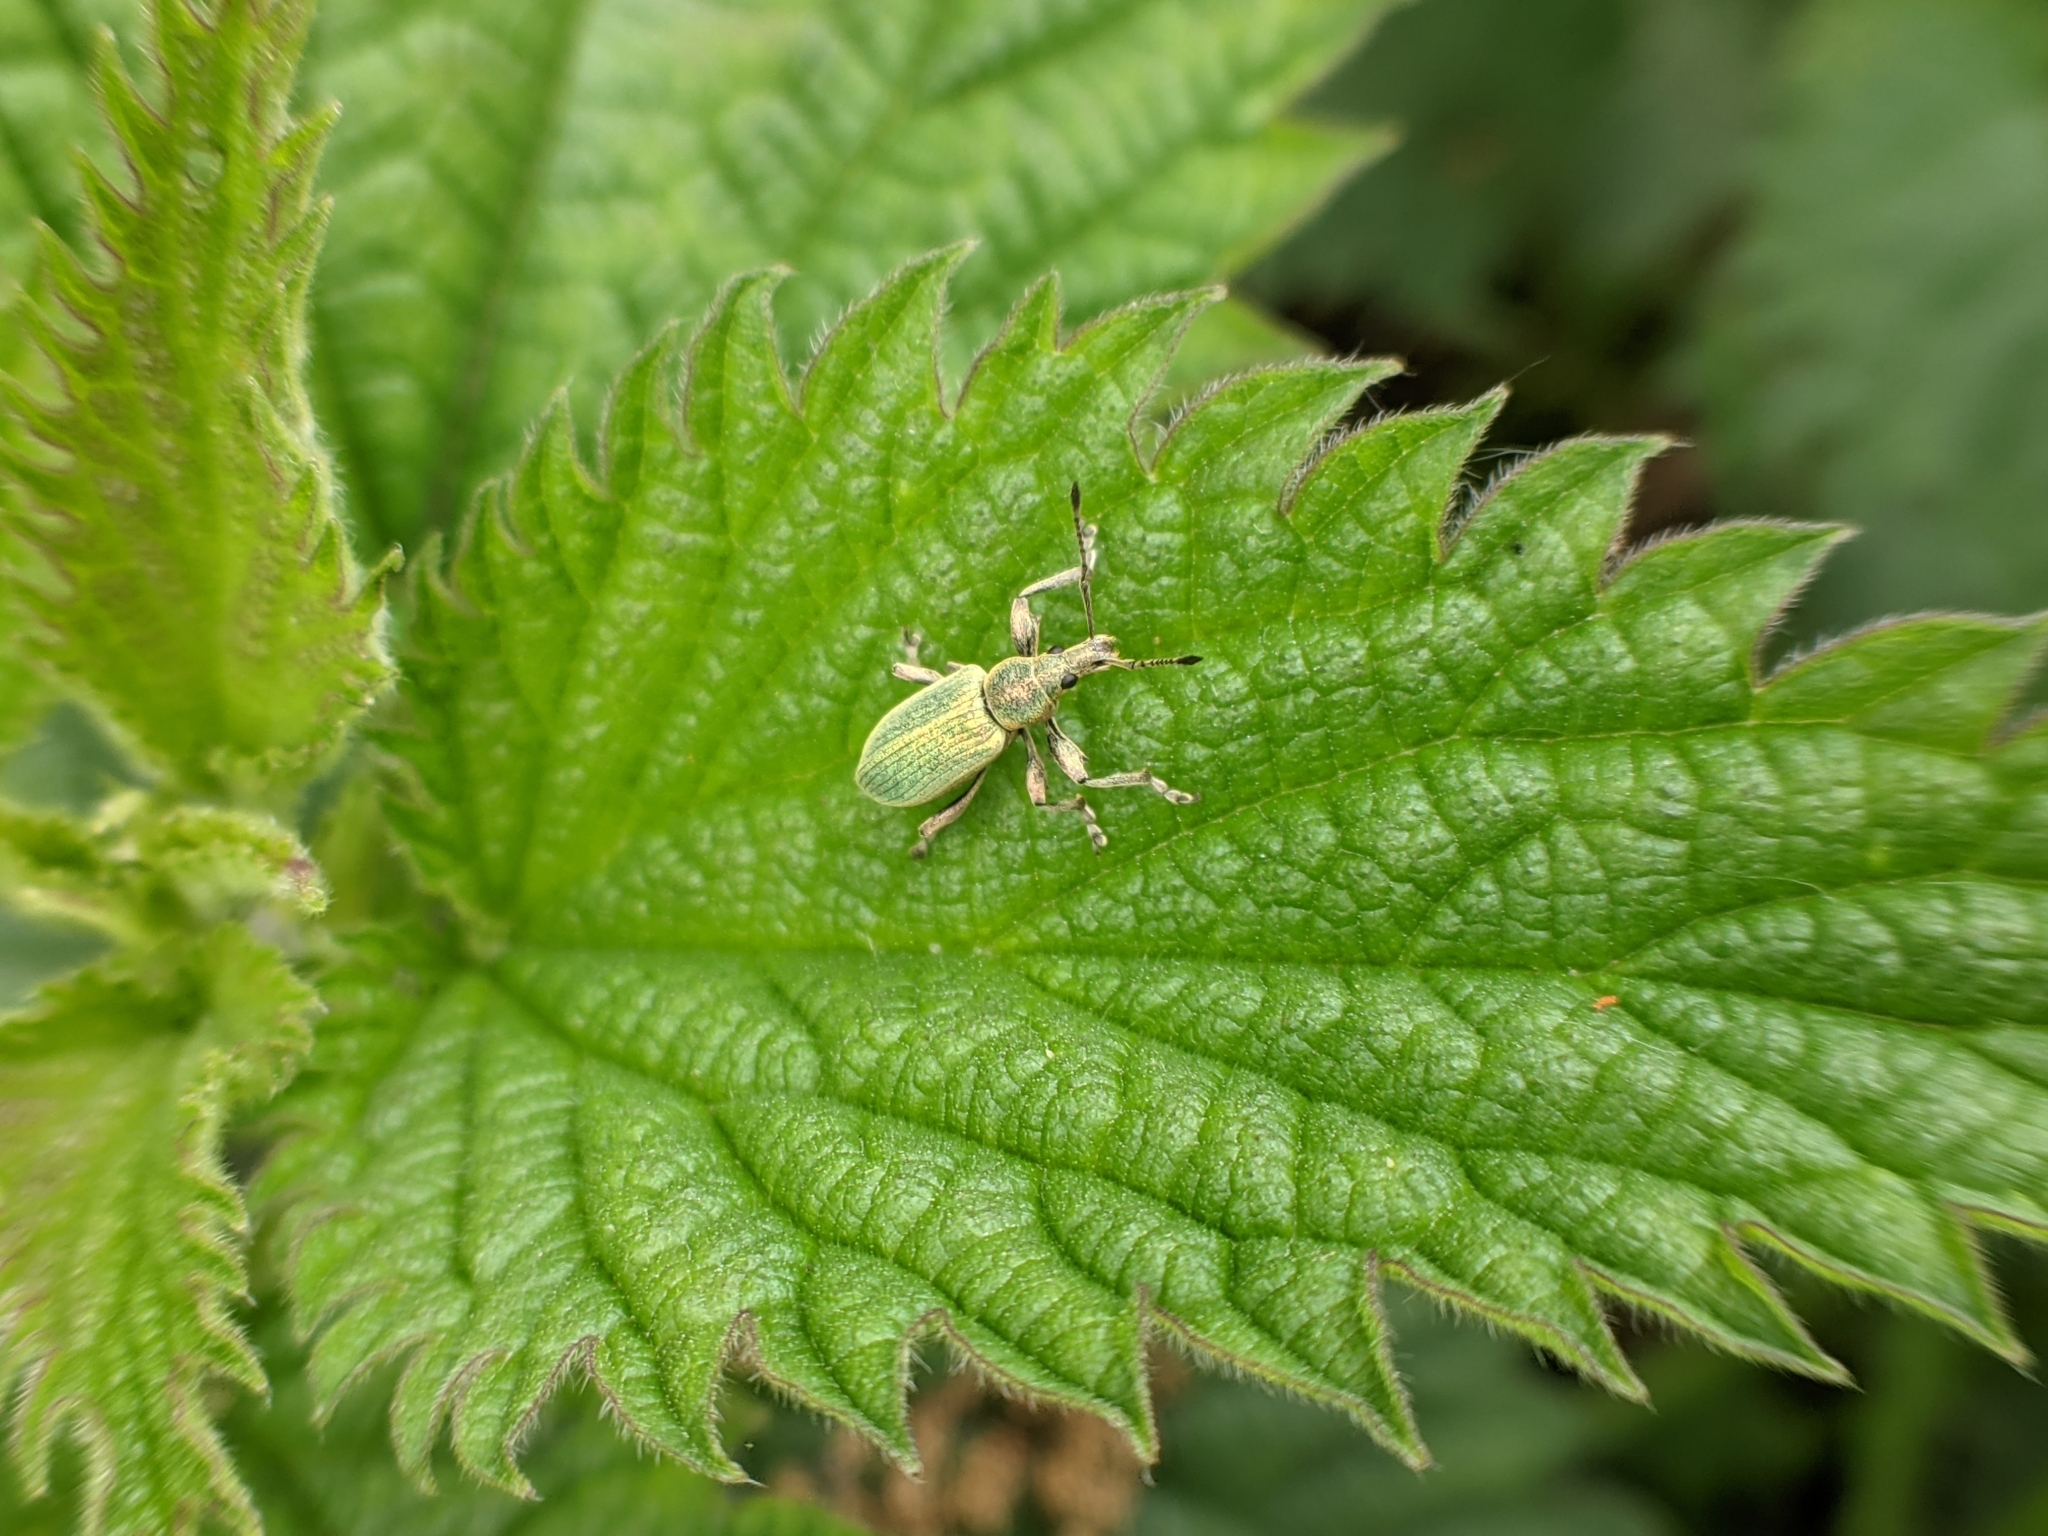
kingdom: Animalia
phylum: Arthropoda
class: Insecta
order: Coleoptera
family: Curculionidae
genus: Phyllobius
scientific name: Phyllobius pomaceus
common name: Green nettle weevil
